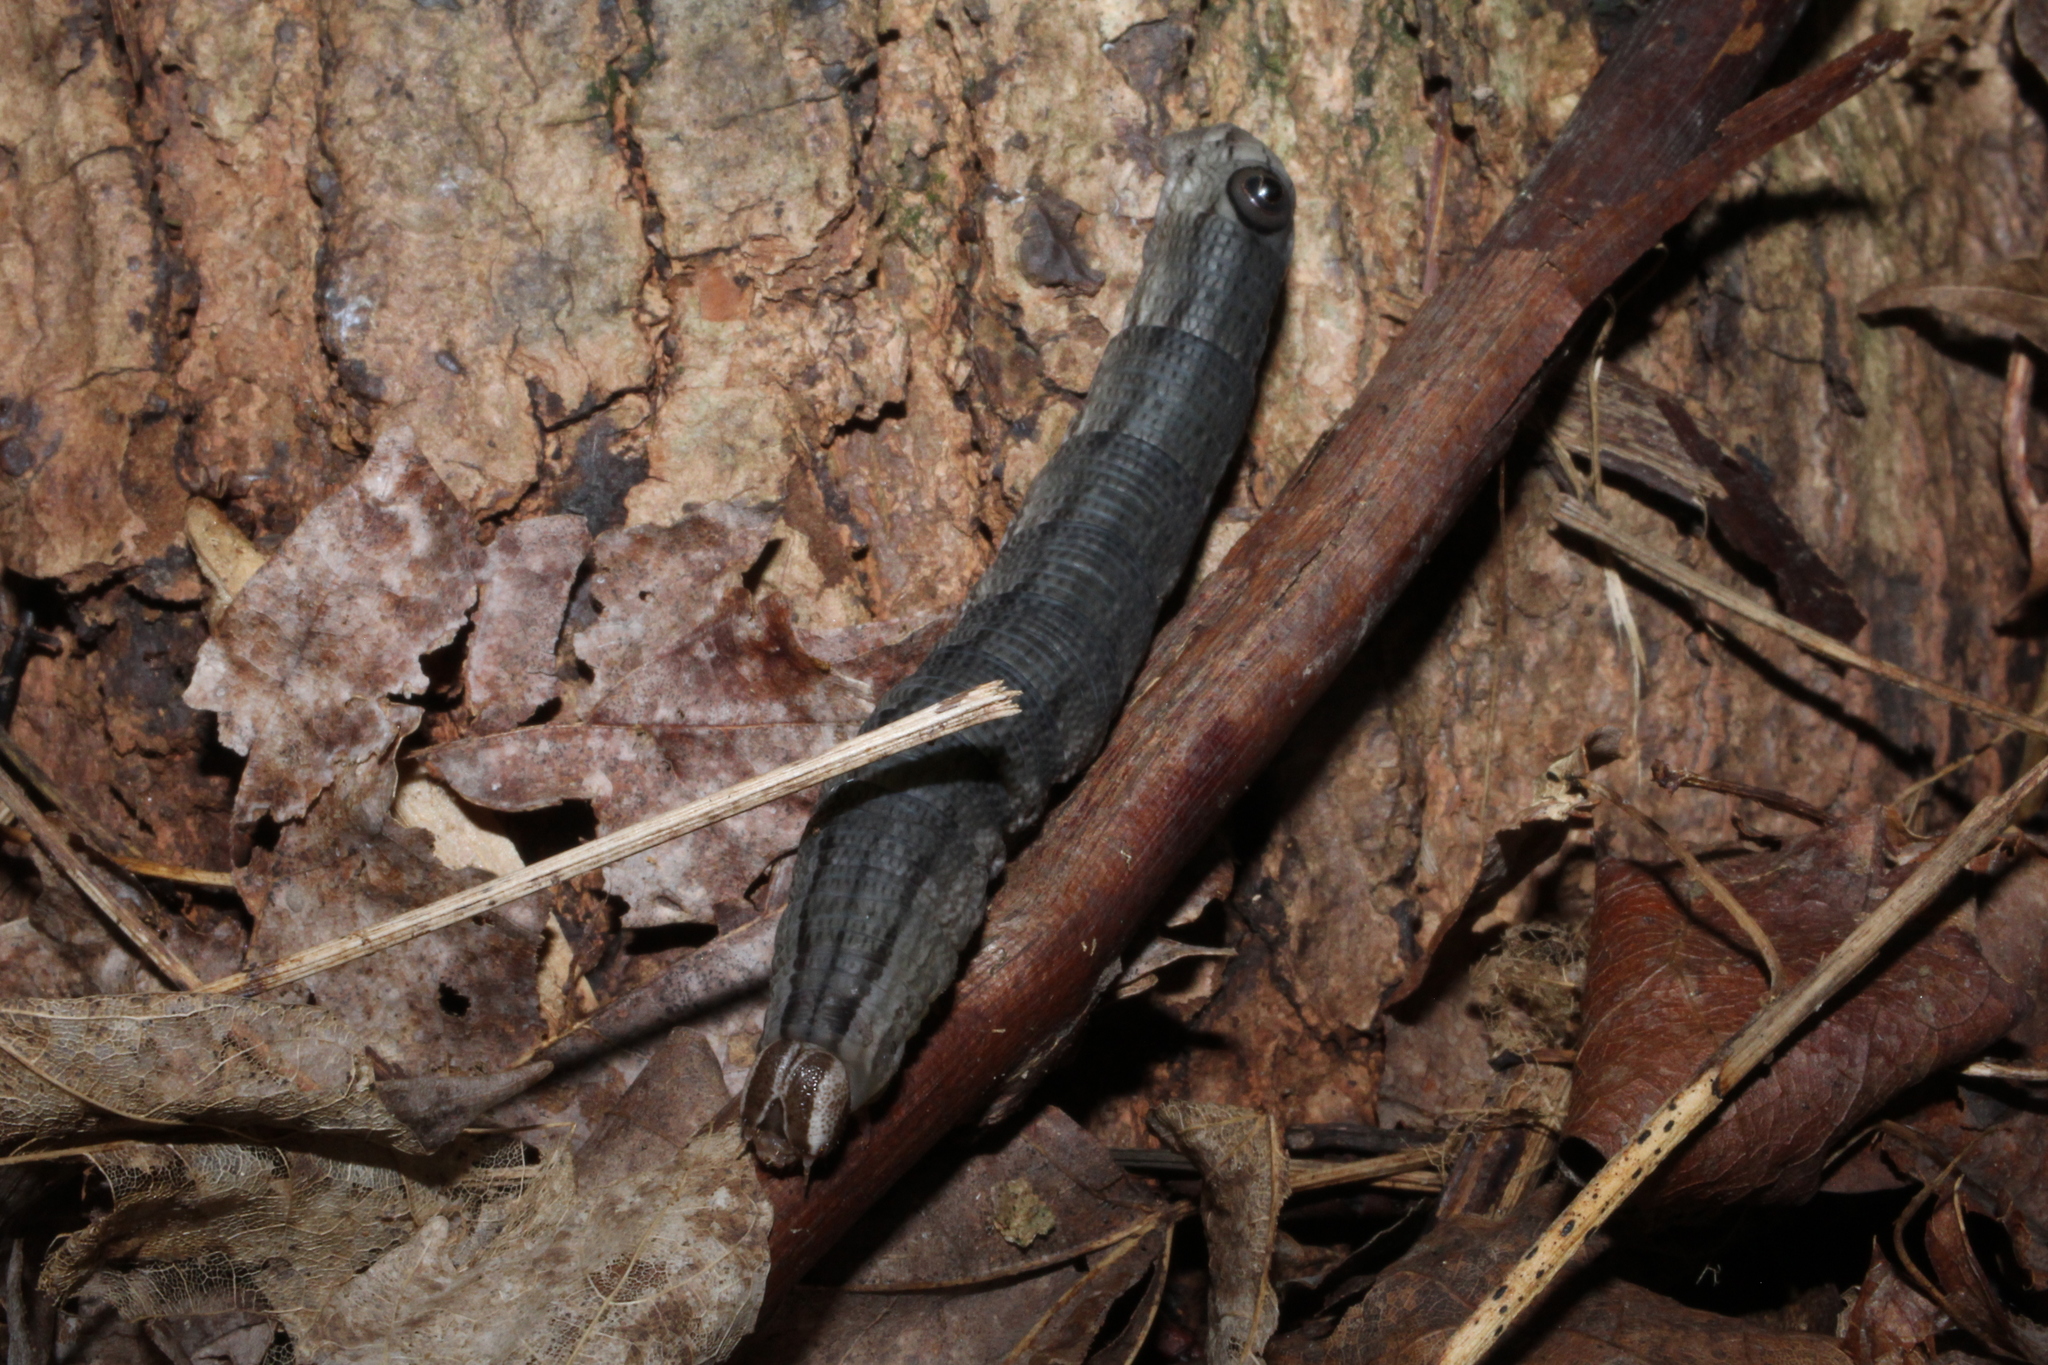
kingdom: Animalia
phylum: Arthropoda
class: Insecta
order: Lepidoptera
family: Sphingidae
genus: Sphecodina
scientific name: Sphecodina abbottii
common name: Abbott's sphinx
